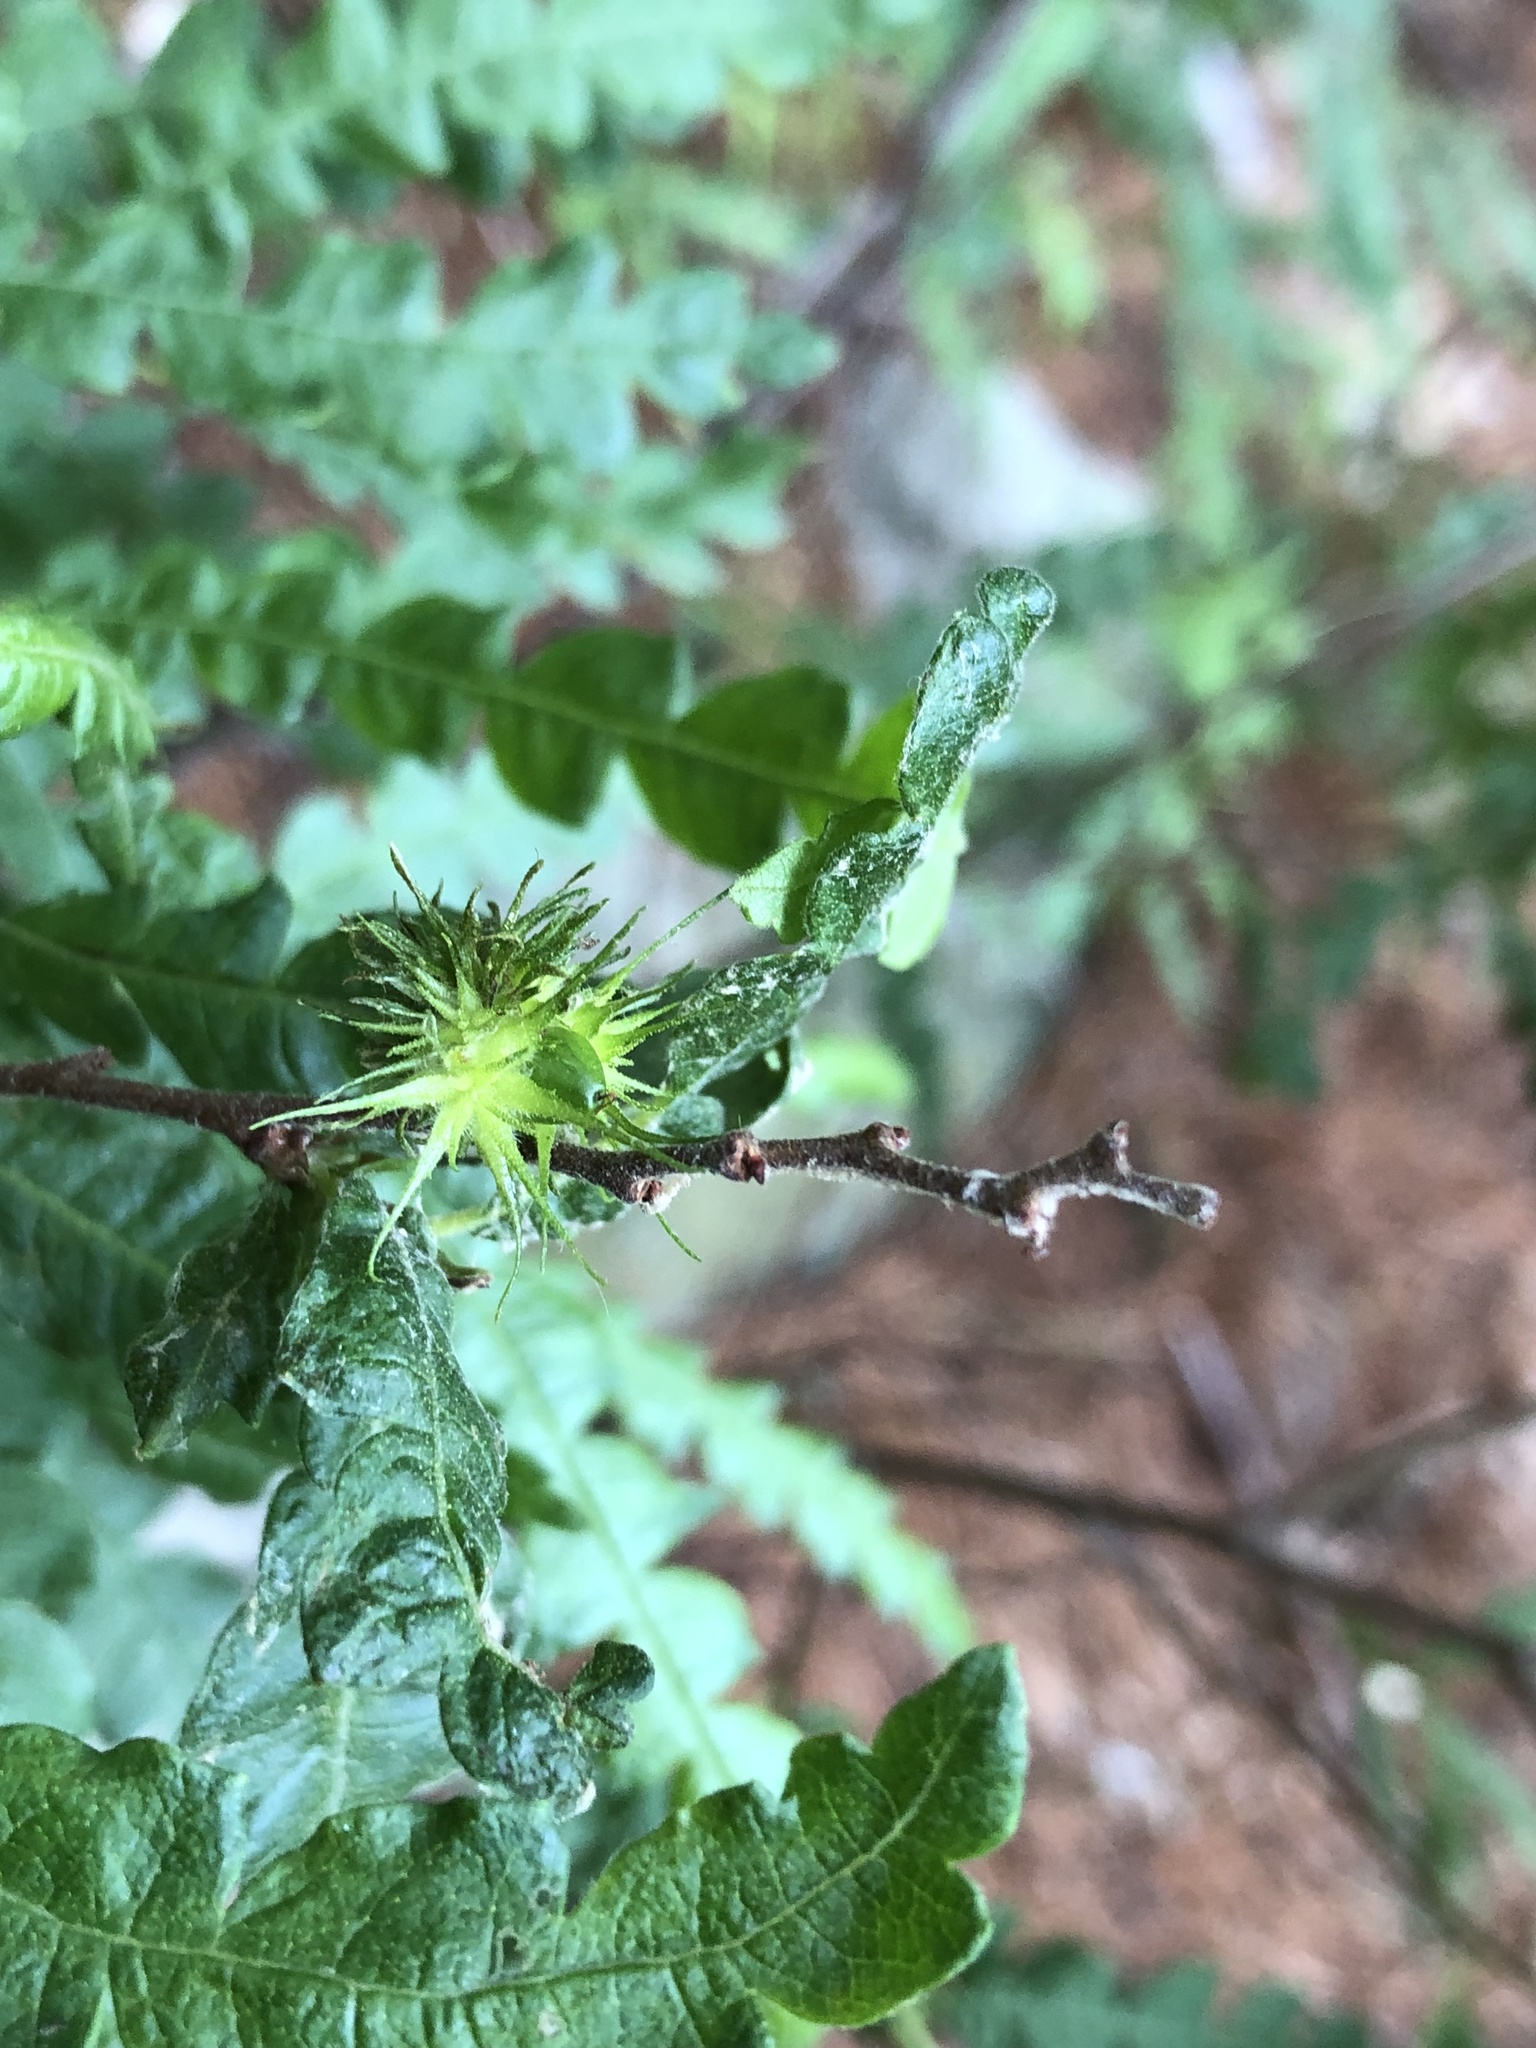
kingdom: Plantae
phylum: Tracheophyta
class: Magnoliopsida
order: Fagales
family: Myricaceae
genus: Comptonia
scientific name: Comptonia peregrina
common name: Sweet-fern
